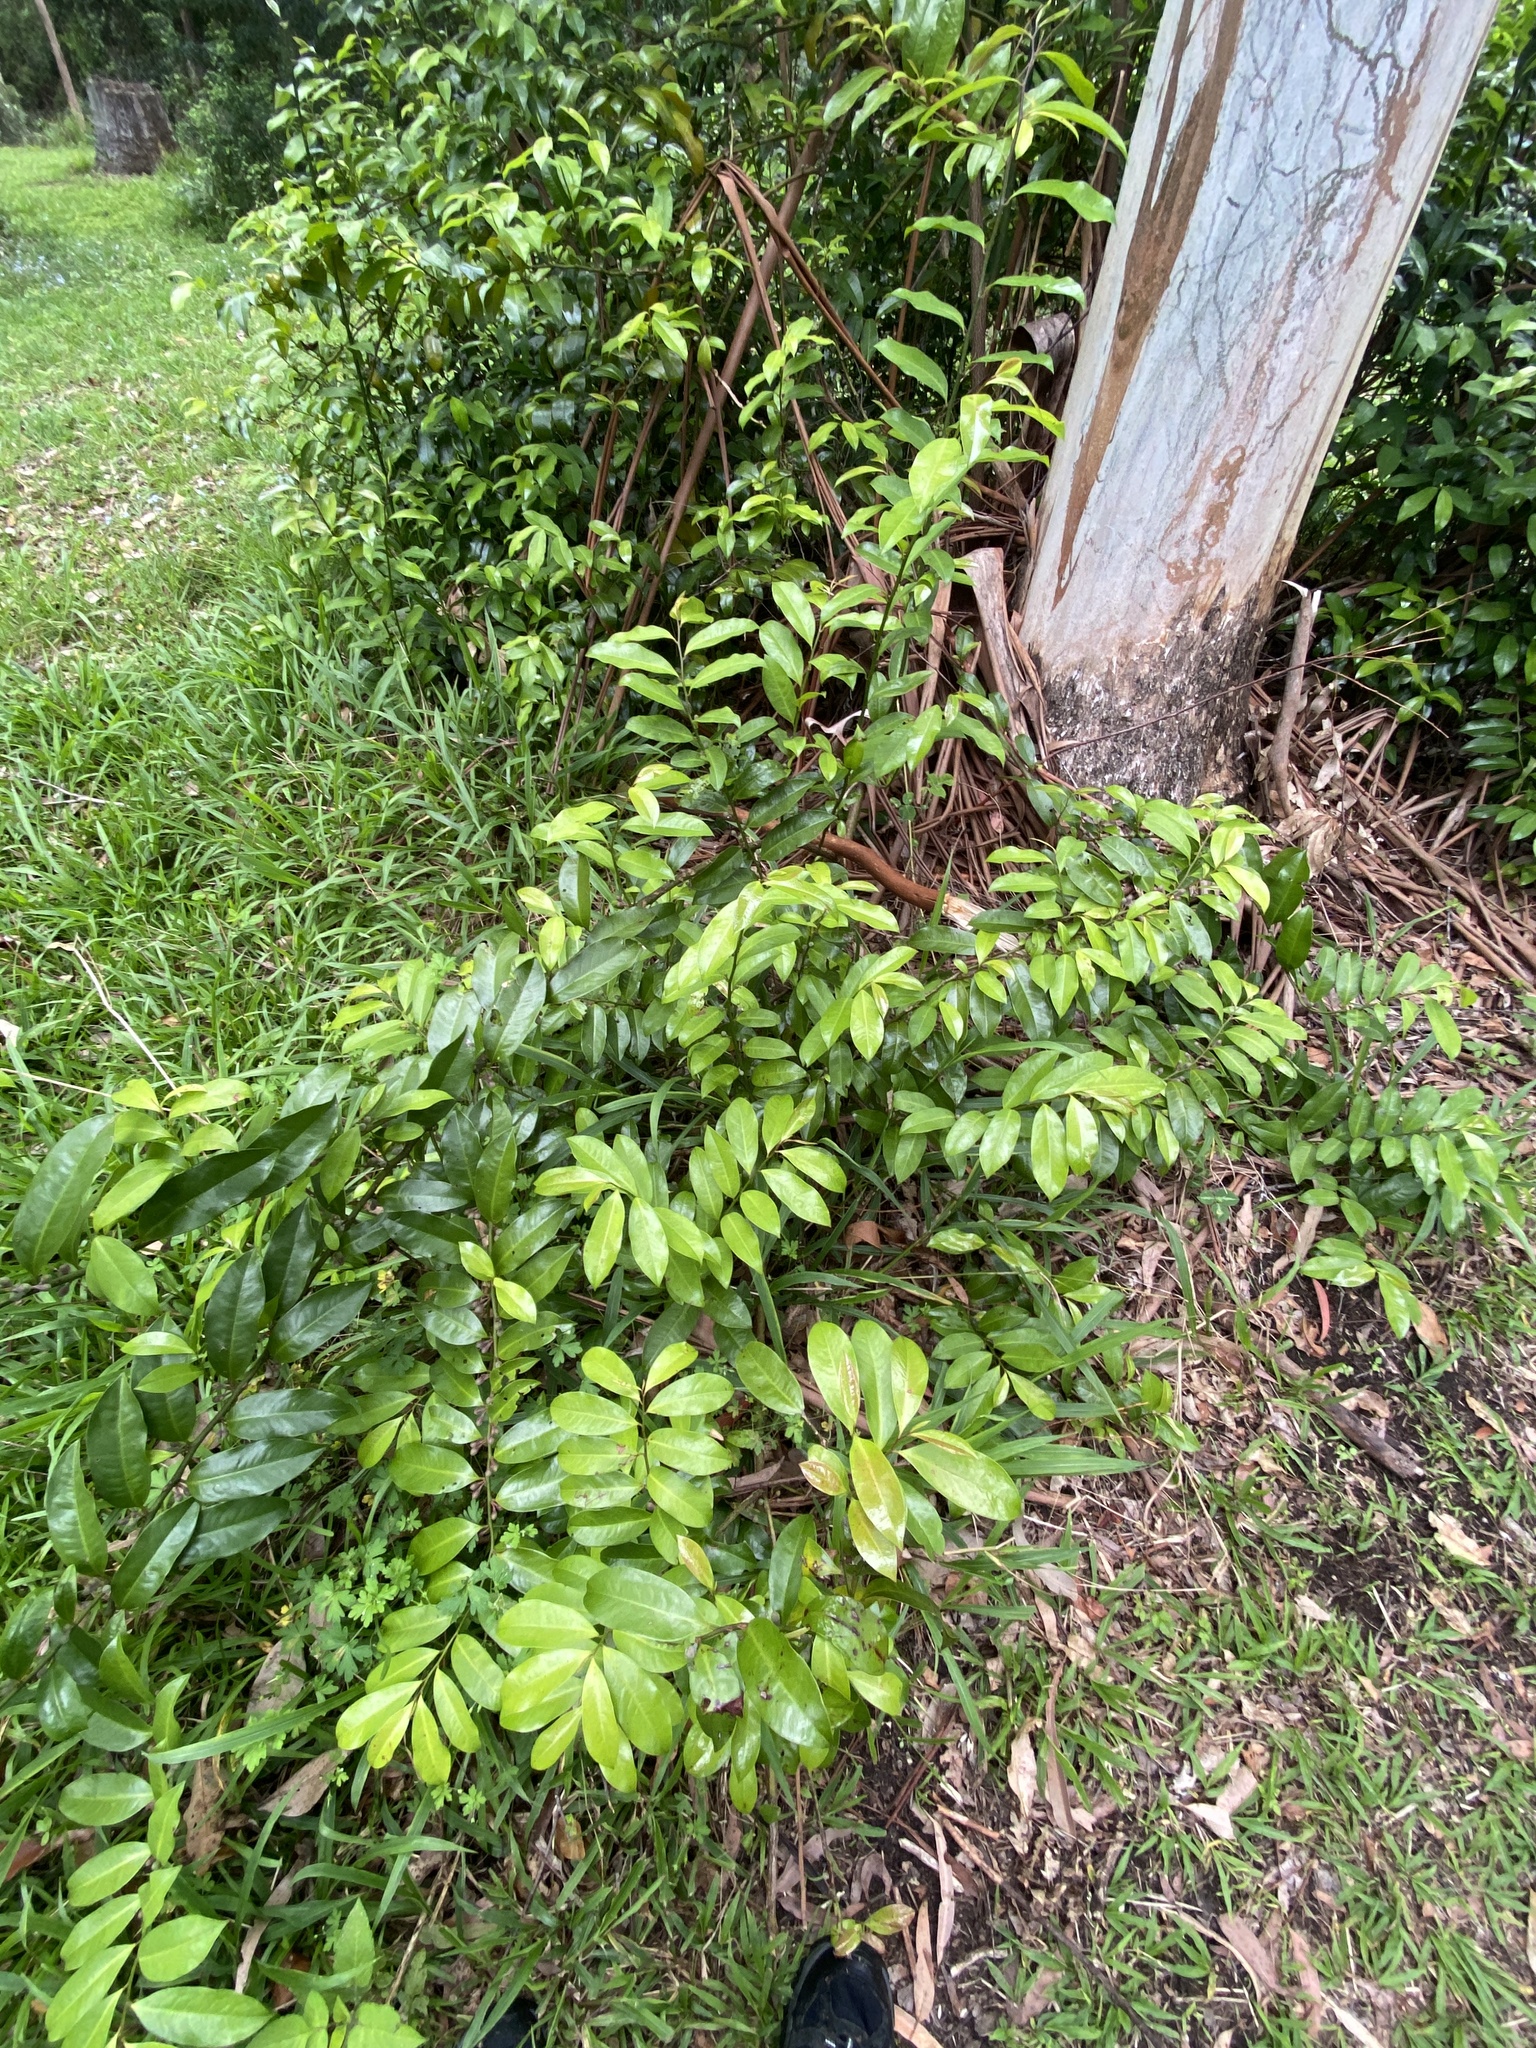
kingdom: Plantae
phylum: Tracheophyta
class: Magnoliopsida
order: Magnoliales
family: Eupomatiaceae
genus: Eupomatia
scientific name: Eupomatia laurina
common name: Bolwarra
